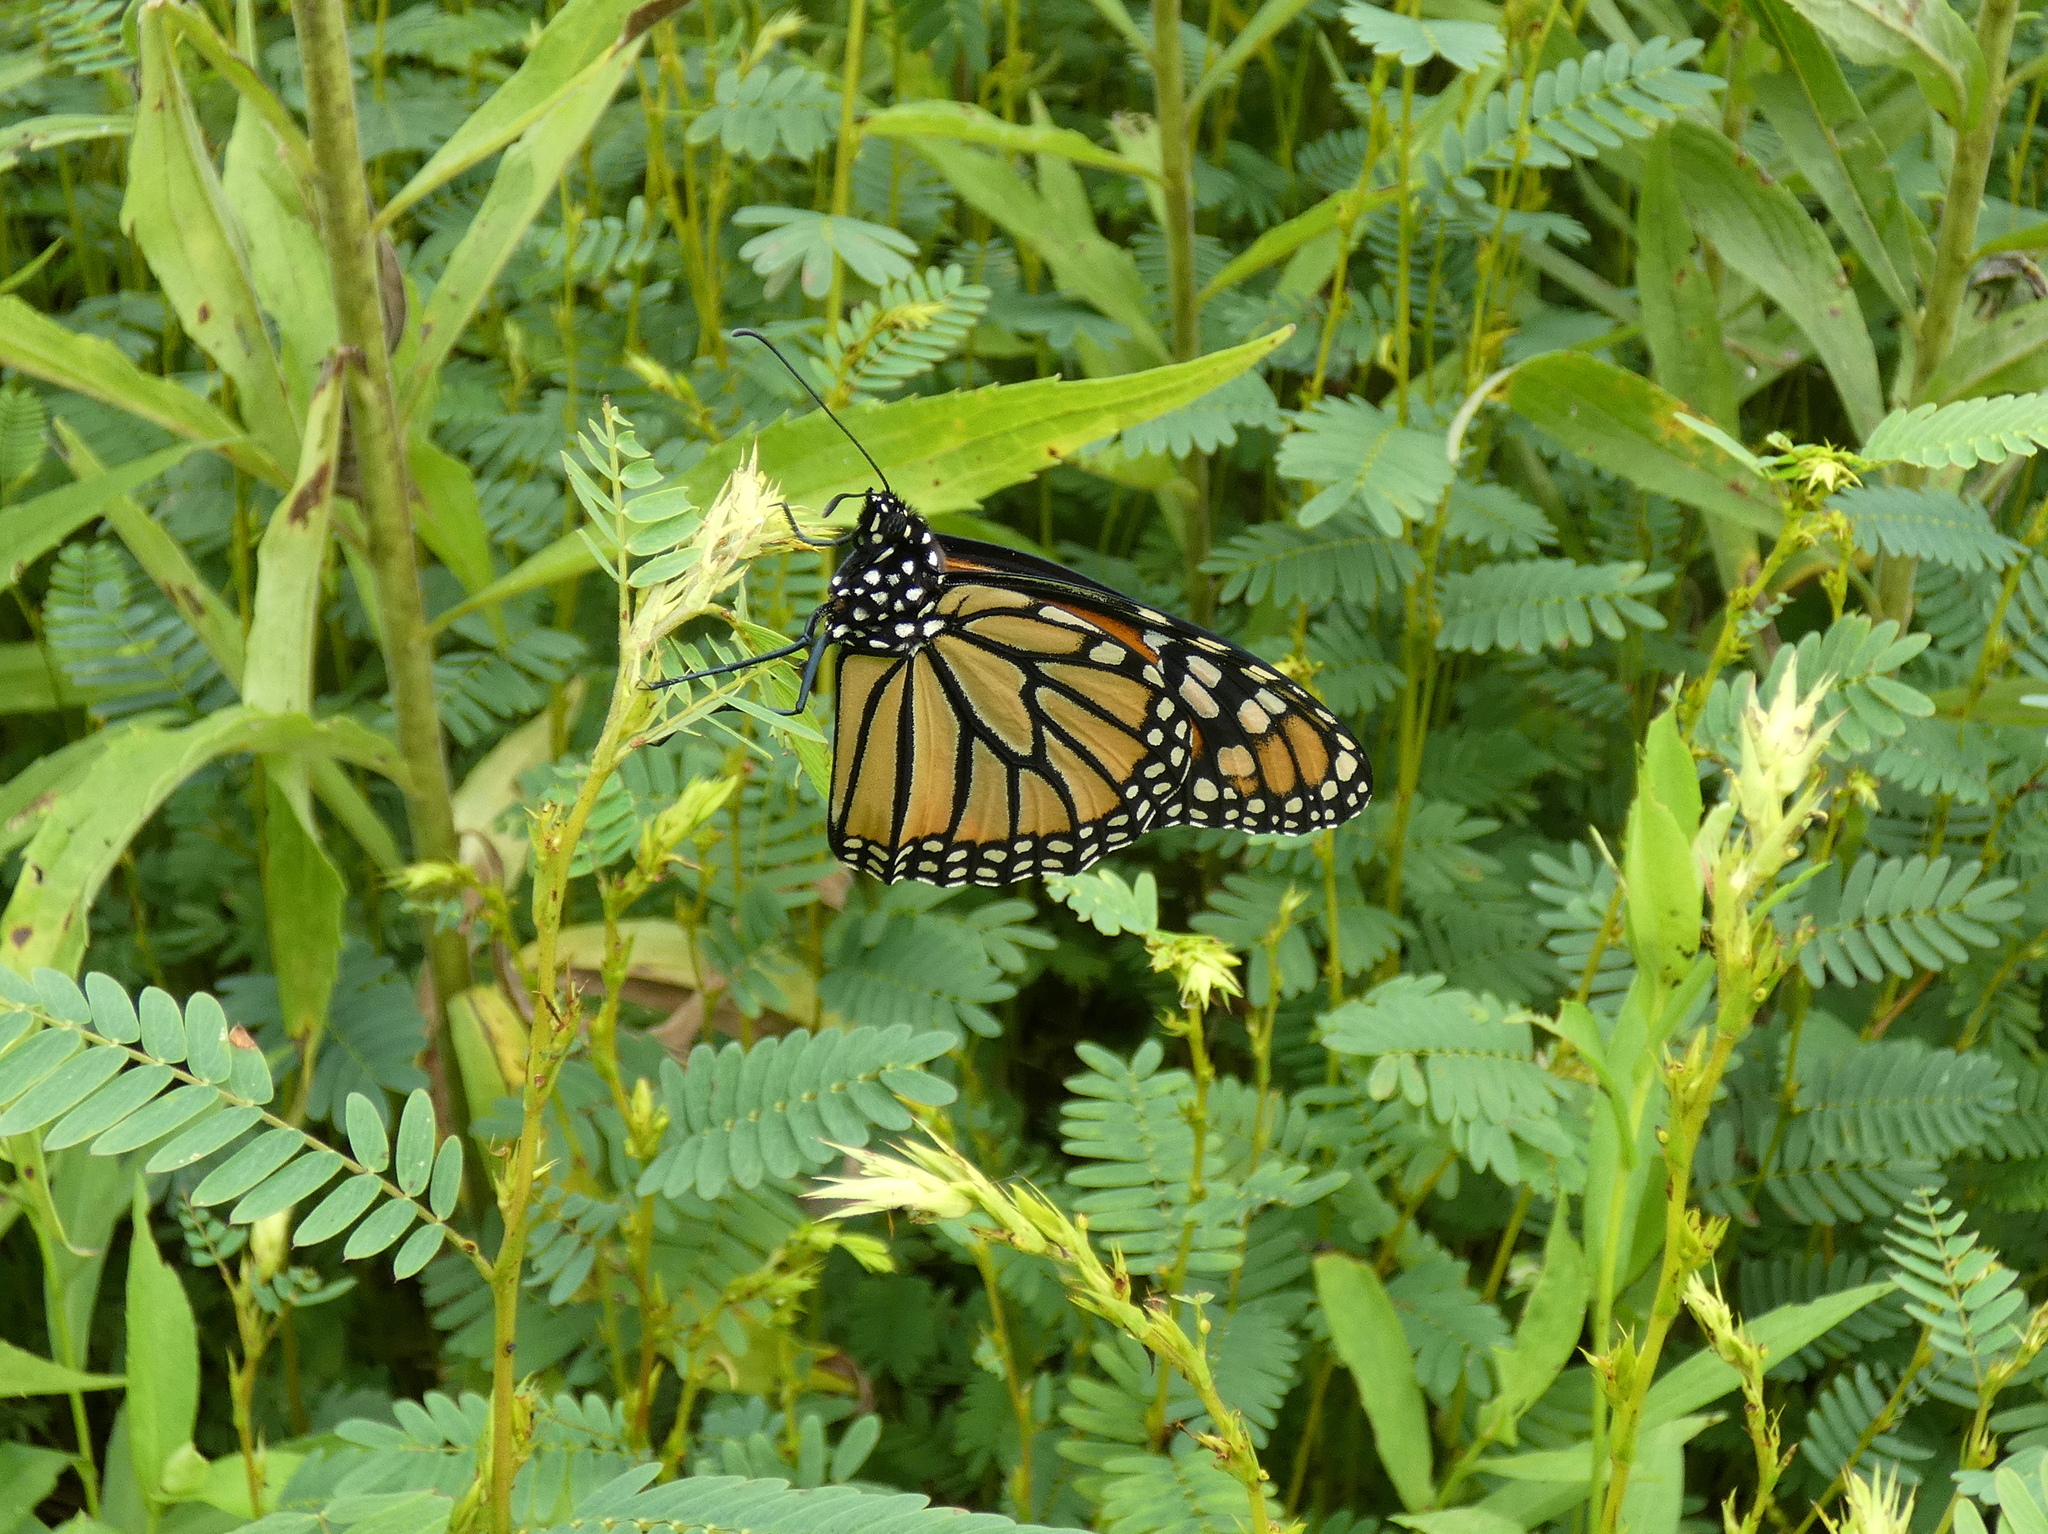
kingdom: Animalia
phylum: Arthropoda
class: Insecta
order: Lepidoptera
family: Nymphalidae
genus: Danaus
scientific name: Danaus plexippus
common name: Monarch
